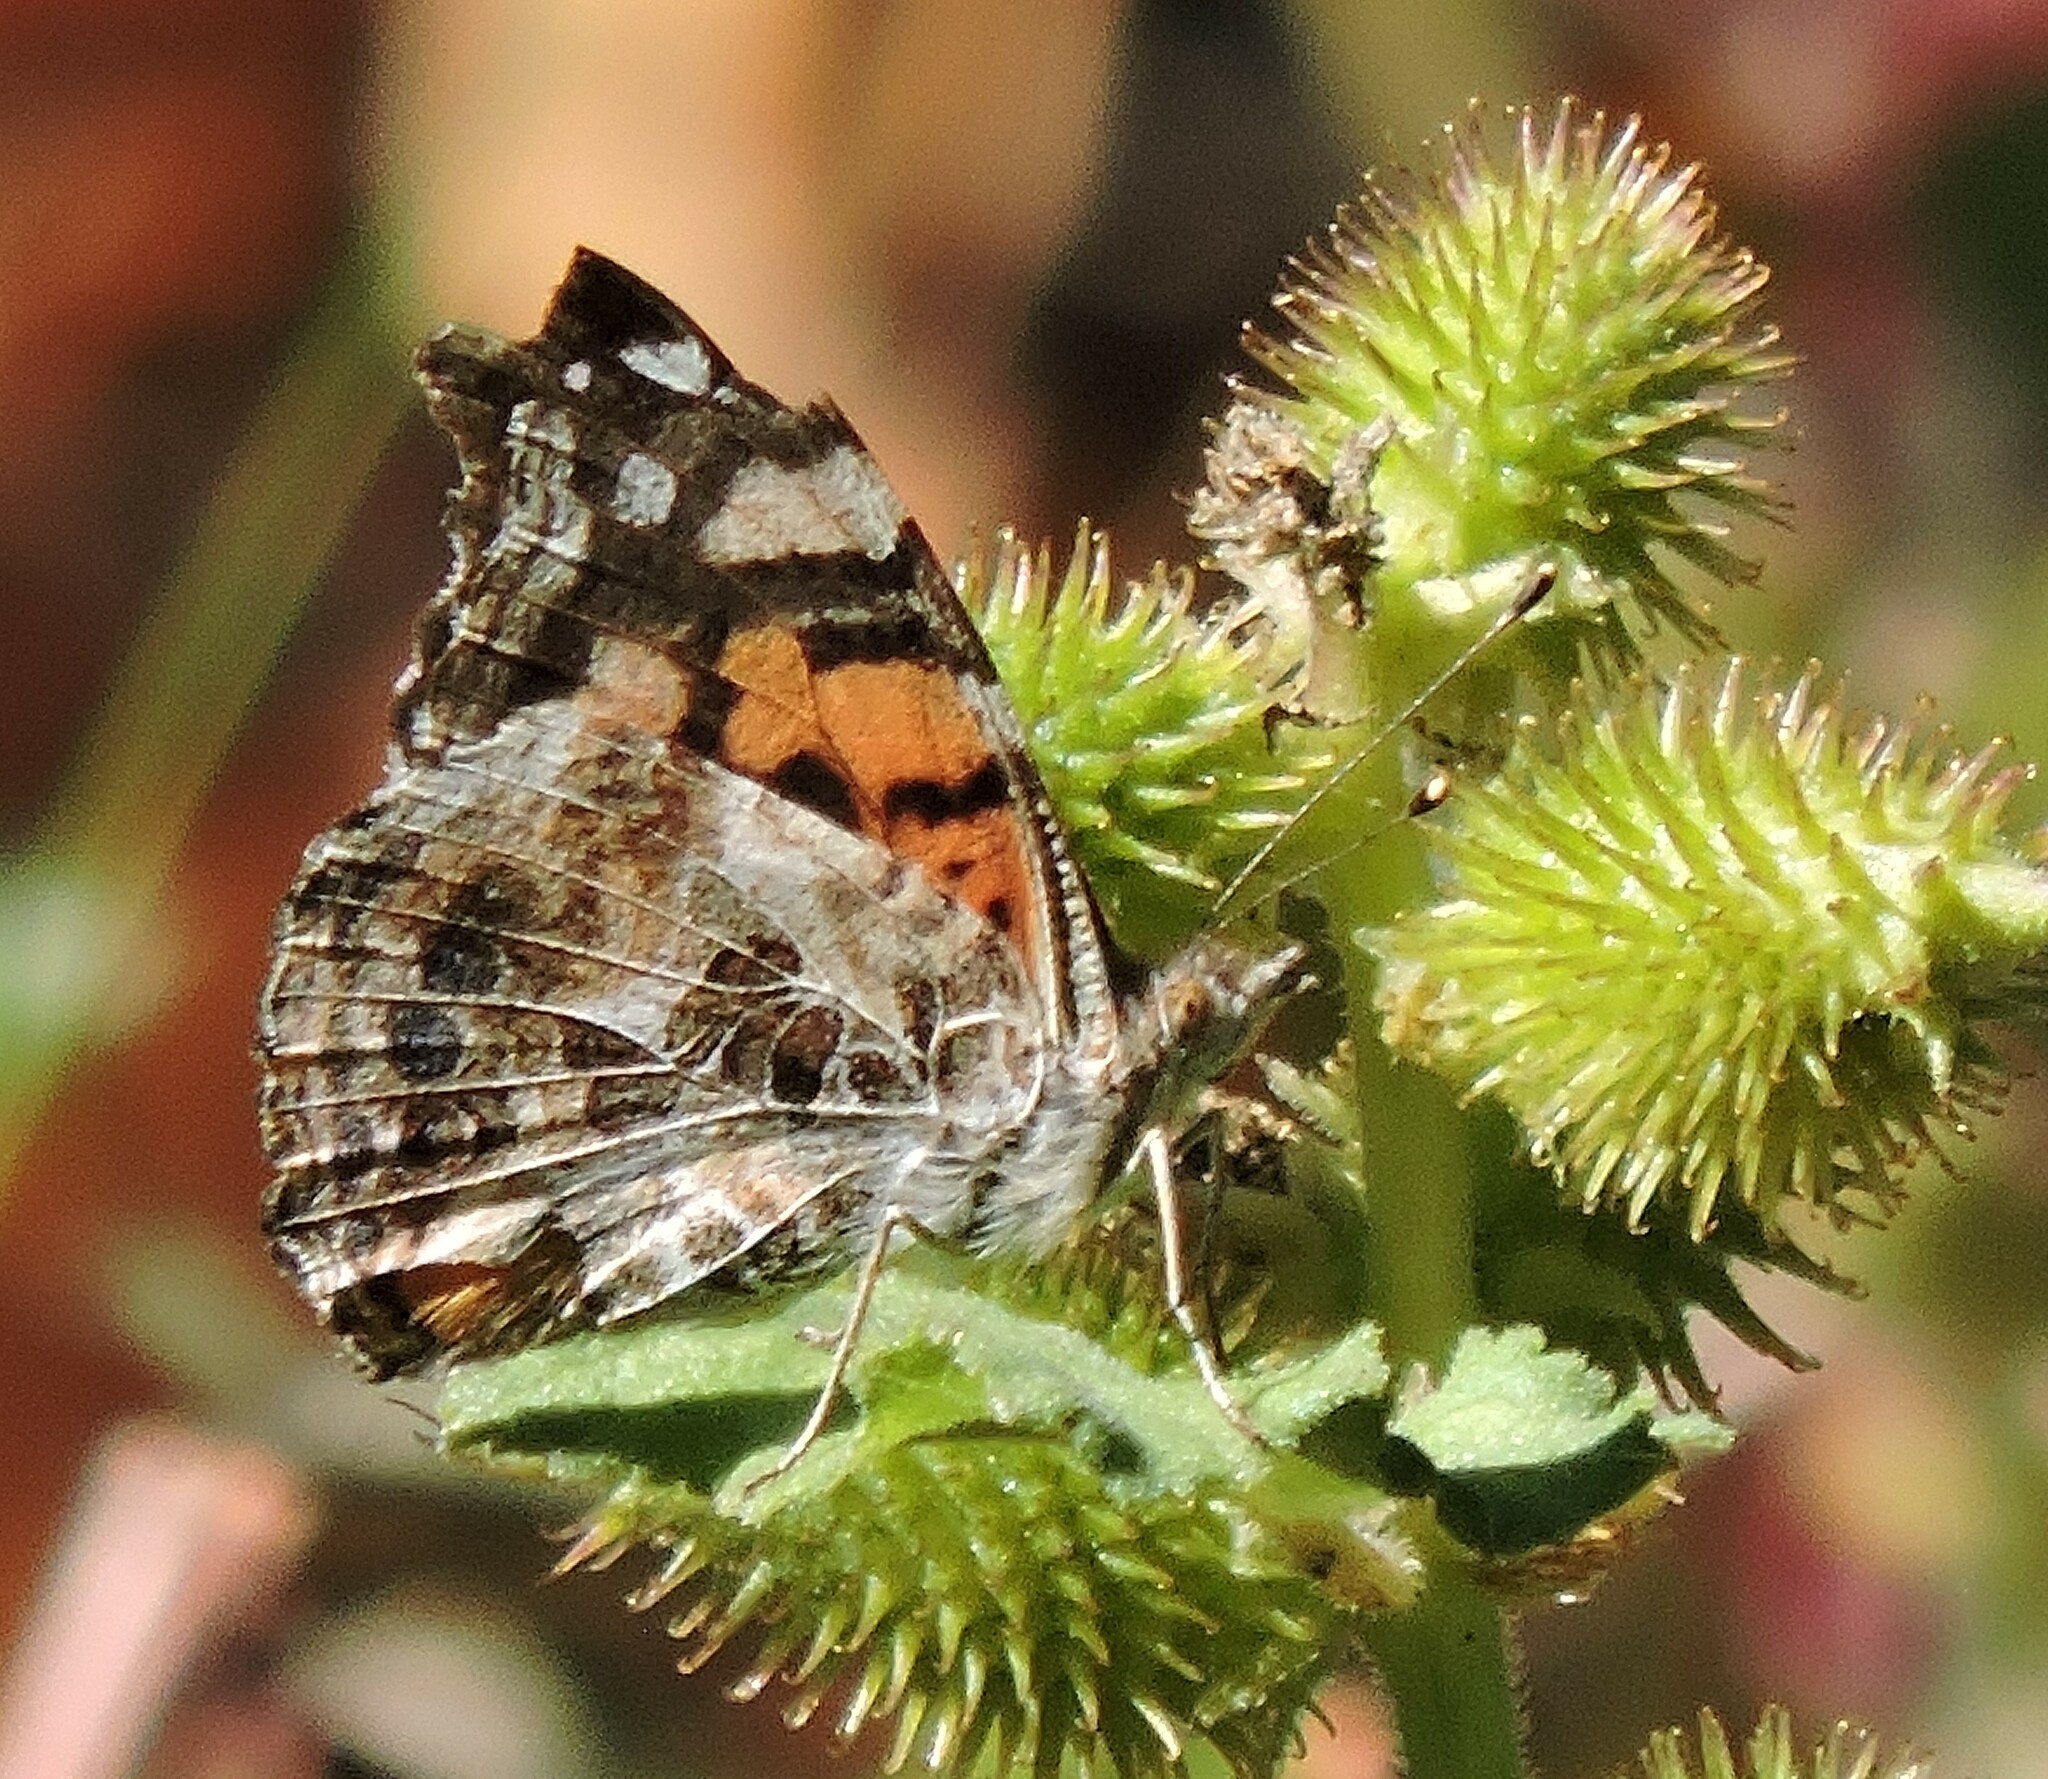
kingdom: Animalia
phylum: Arthropoda
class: Insecta
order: Lepidoptera
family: Nymphalidae
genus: Vanessa
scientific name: Vanessa annabella
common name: West coast lady
